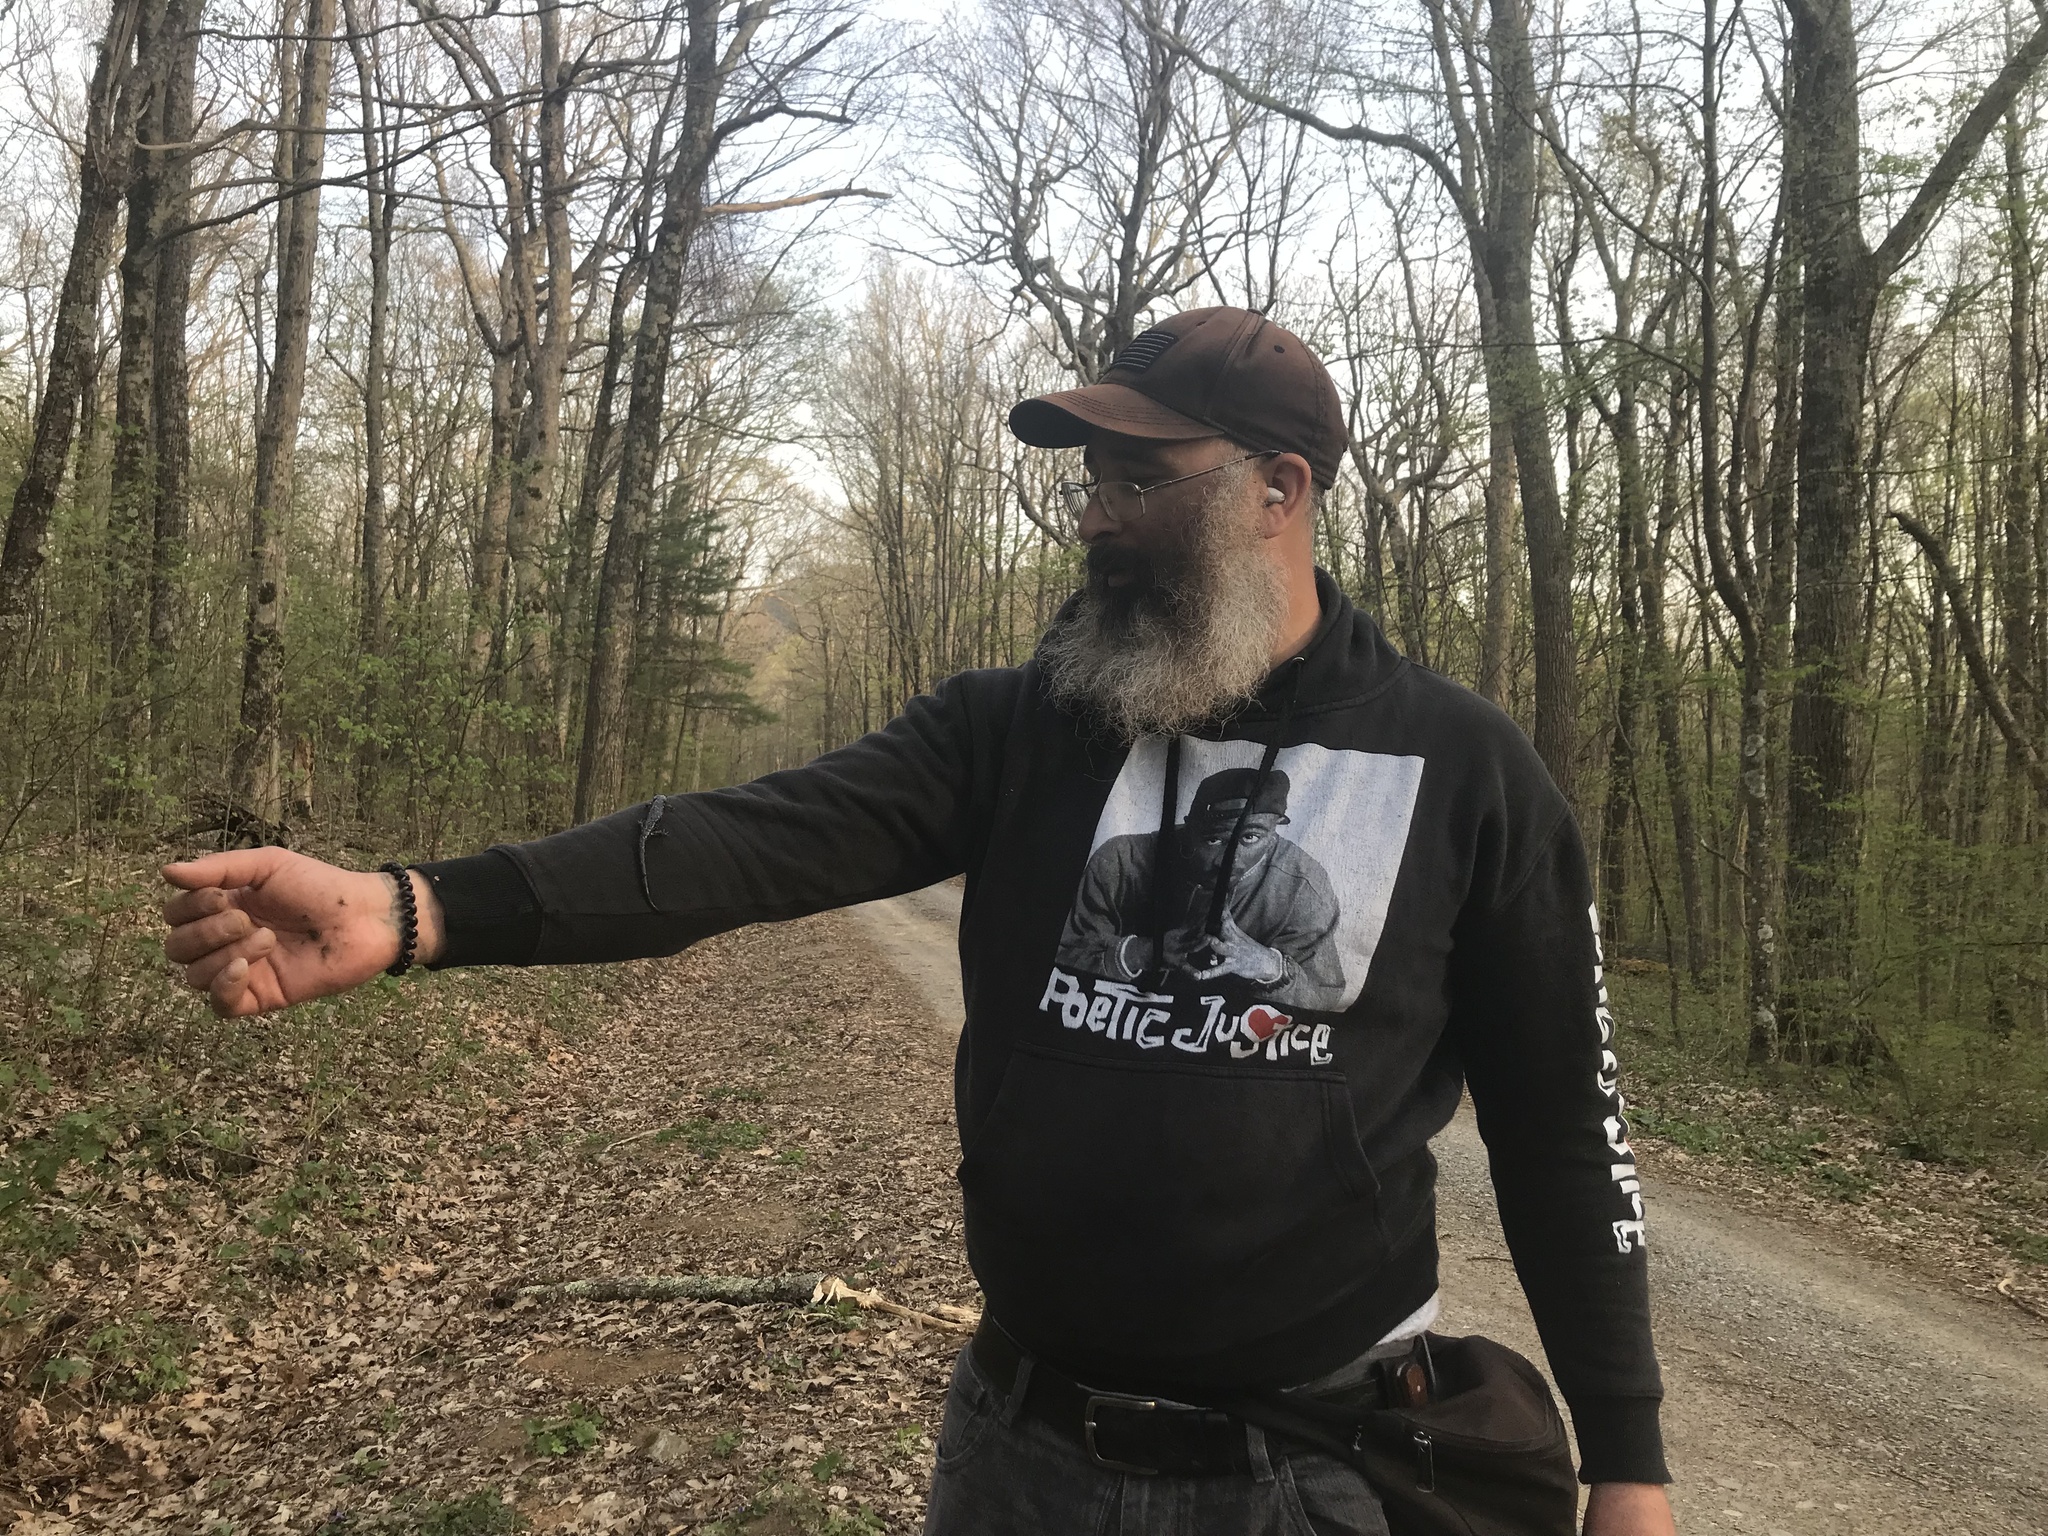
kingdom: Animalia
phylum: Chordata
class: Amphibia
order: Caudata
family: Plethodontidae
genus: Plethodon
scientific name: Plethodon cylindraceus
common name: White-spotted slimy salamander
